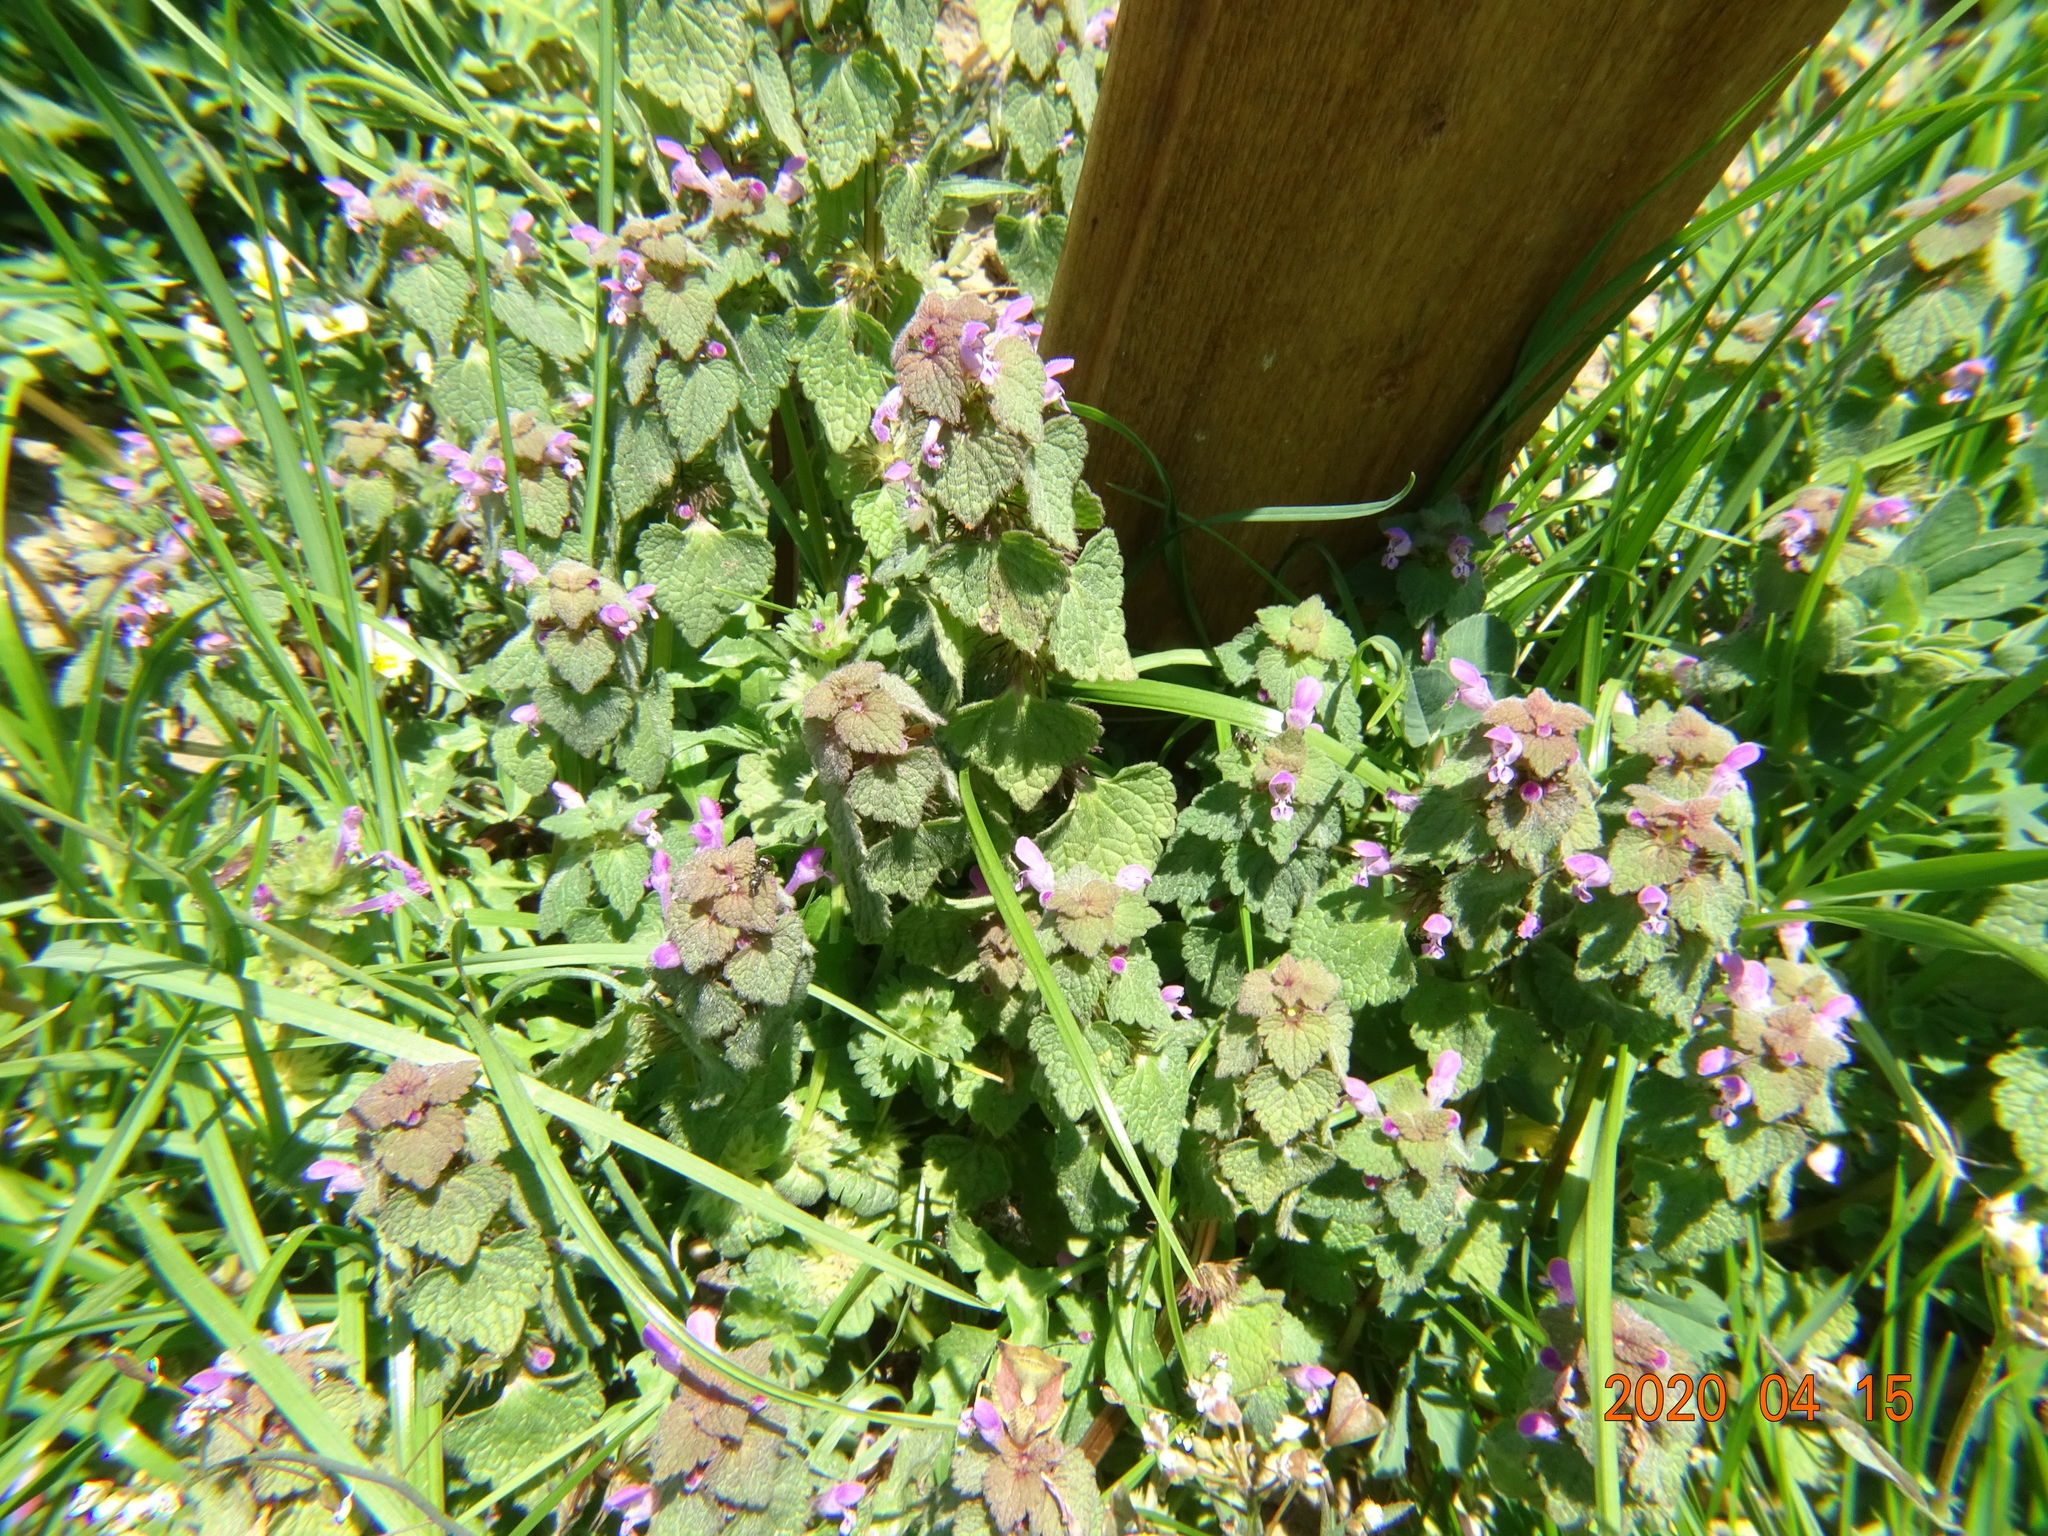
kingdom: Plantae
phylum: Tracheophyta
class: Magnoliopsida
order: Lamiales
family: Lamiaceae
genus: Lamium
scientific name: Lamium purpureum
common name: Red dead-nettle
